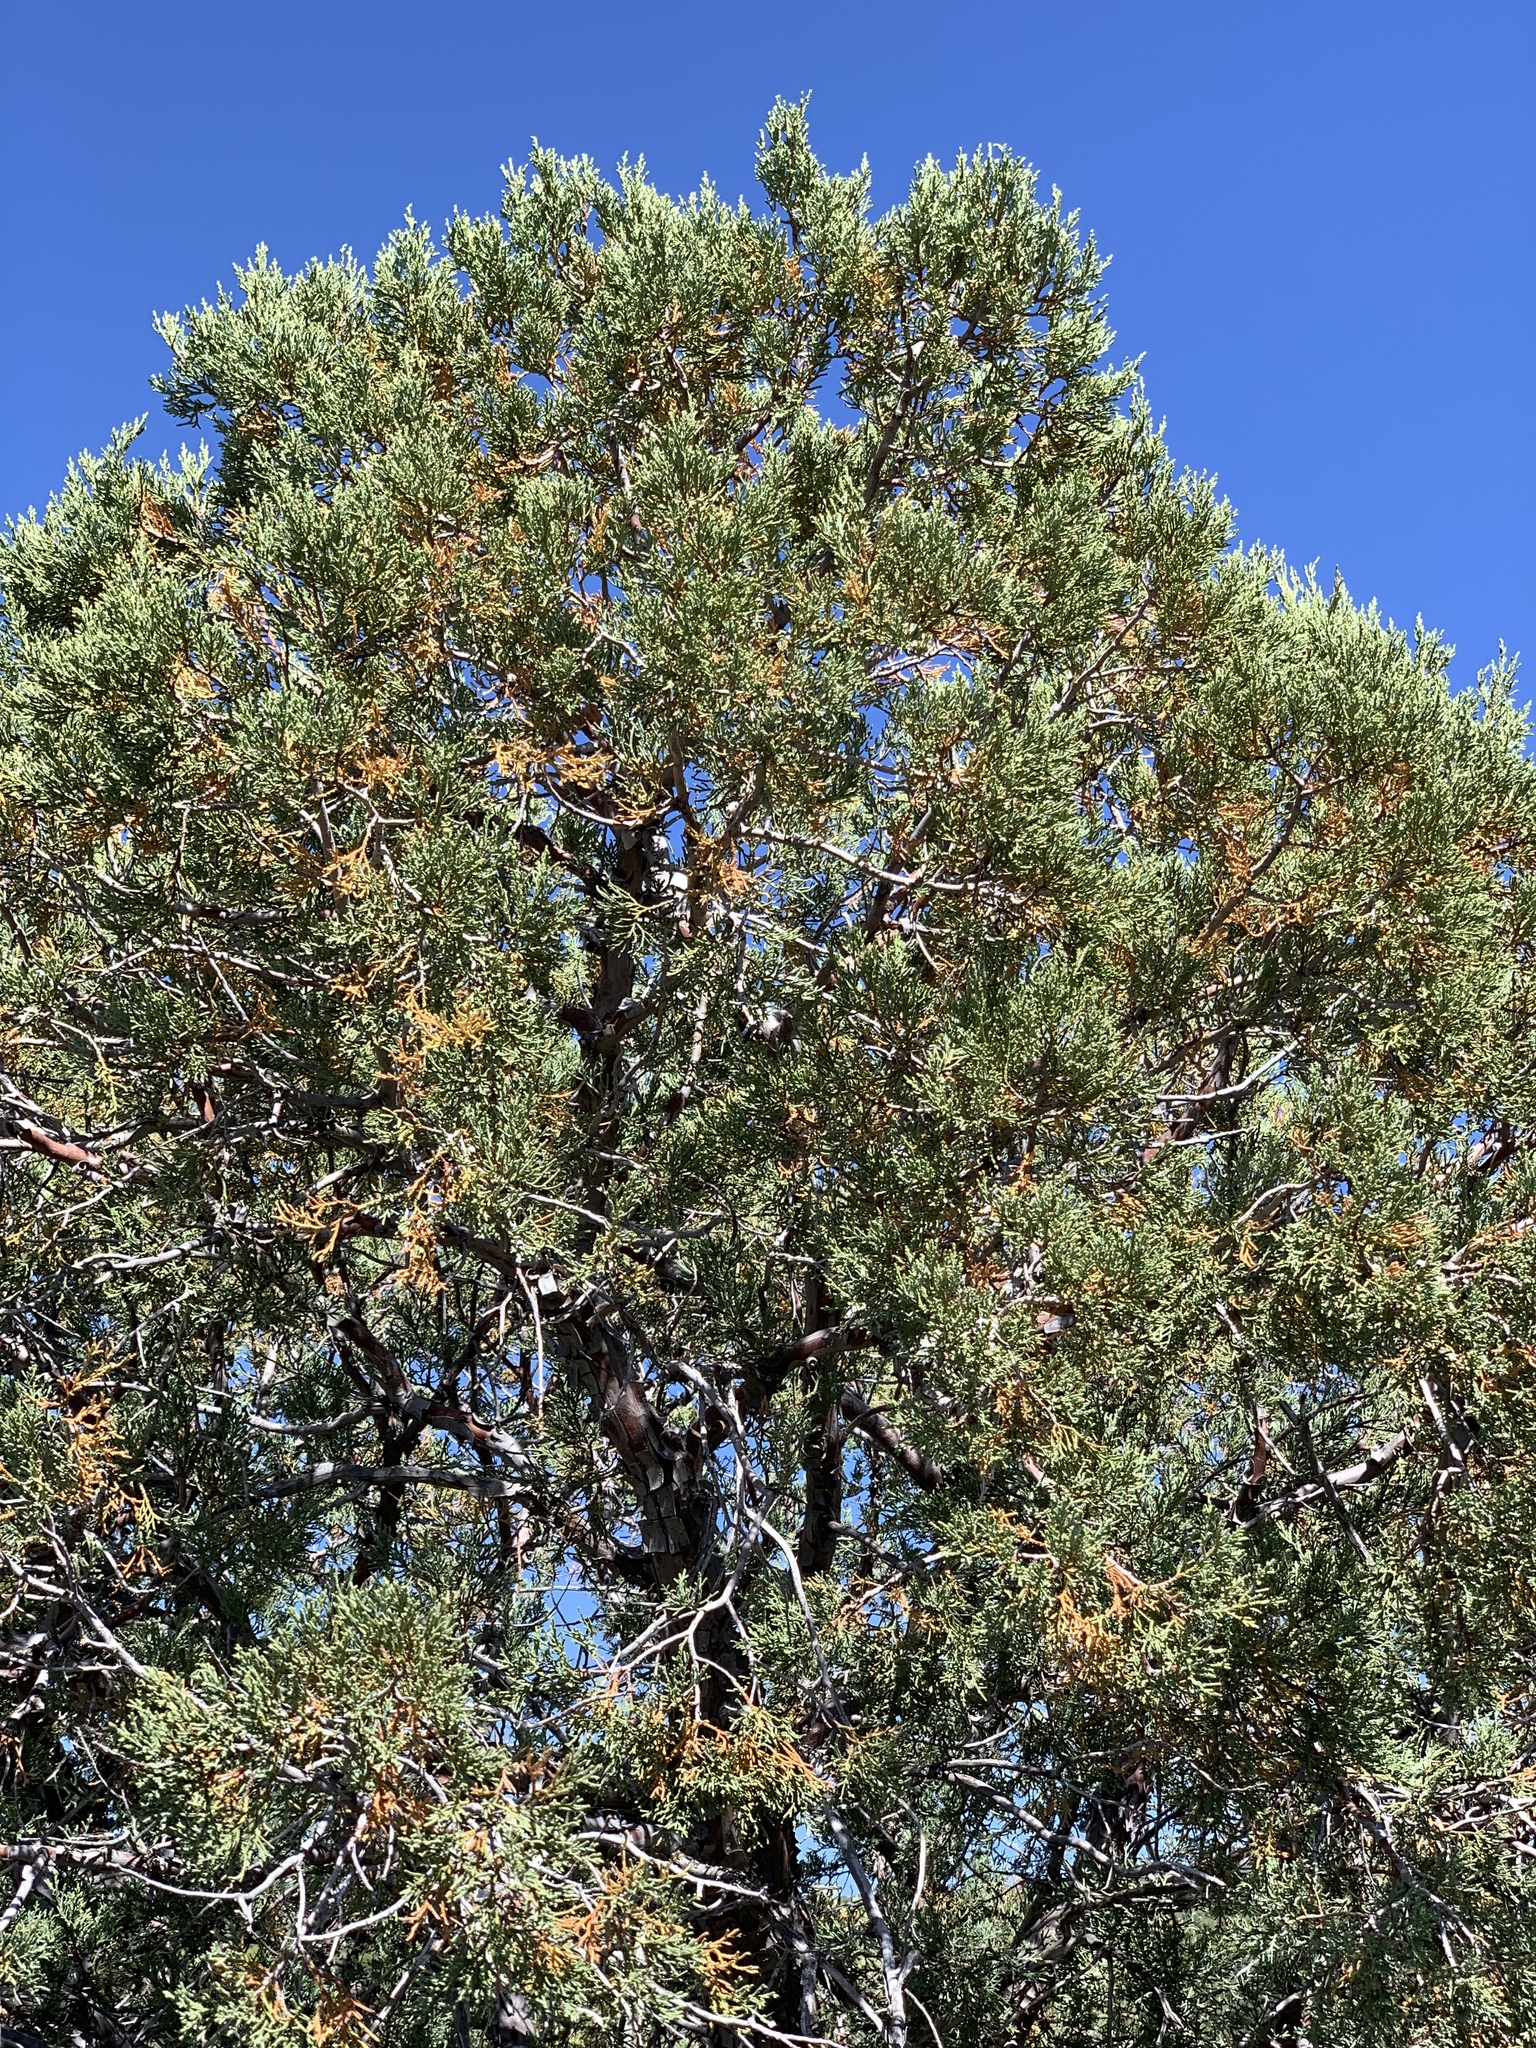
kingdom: Plantae
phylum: Tracheophyta
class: Pinopsida
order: Pinales
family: Cupressaceae
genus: Juniperus
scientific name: Juniperus deppeana
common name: Alligator juniper
